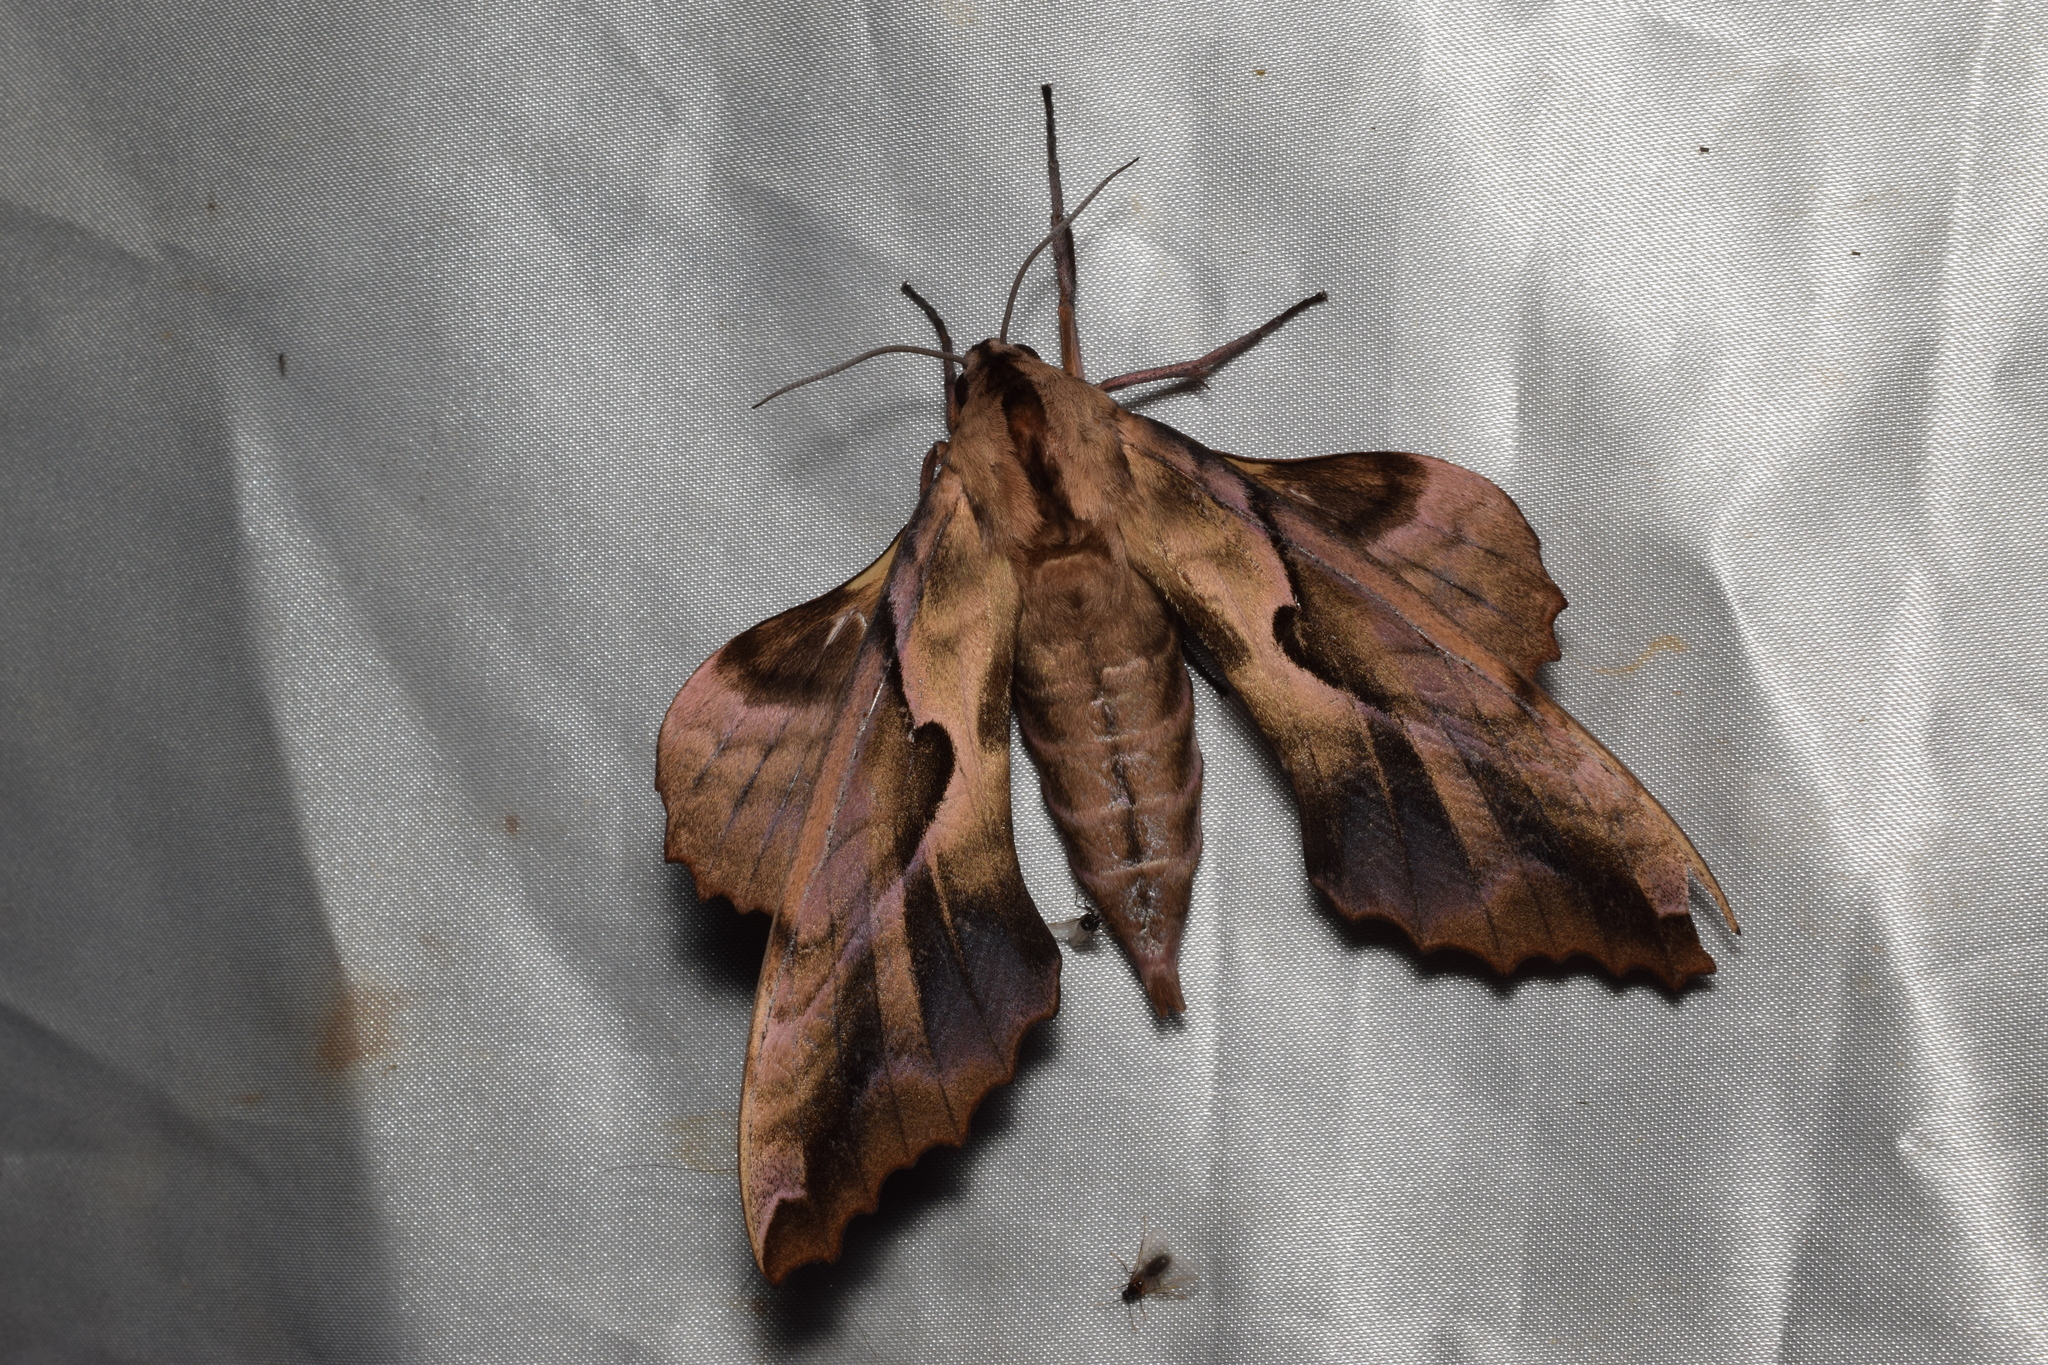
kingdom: Animalia
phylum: Arthropoda
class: Insecta
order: Lepidoptera
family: Sphingidae
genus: Phyllosphingia
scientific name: Phyllosphingia dissimilis
